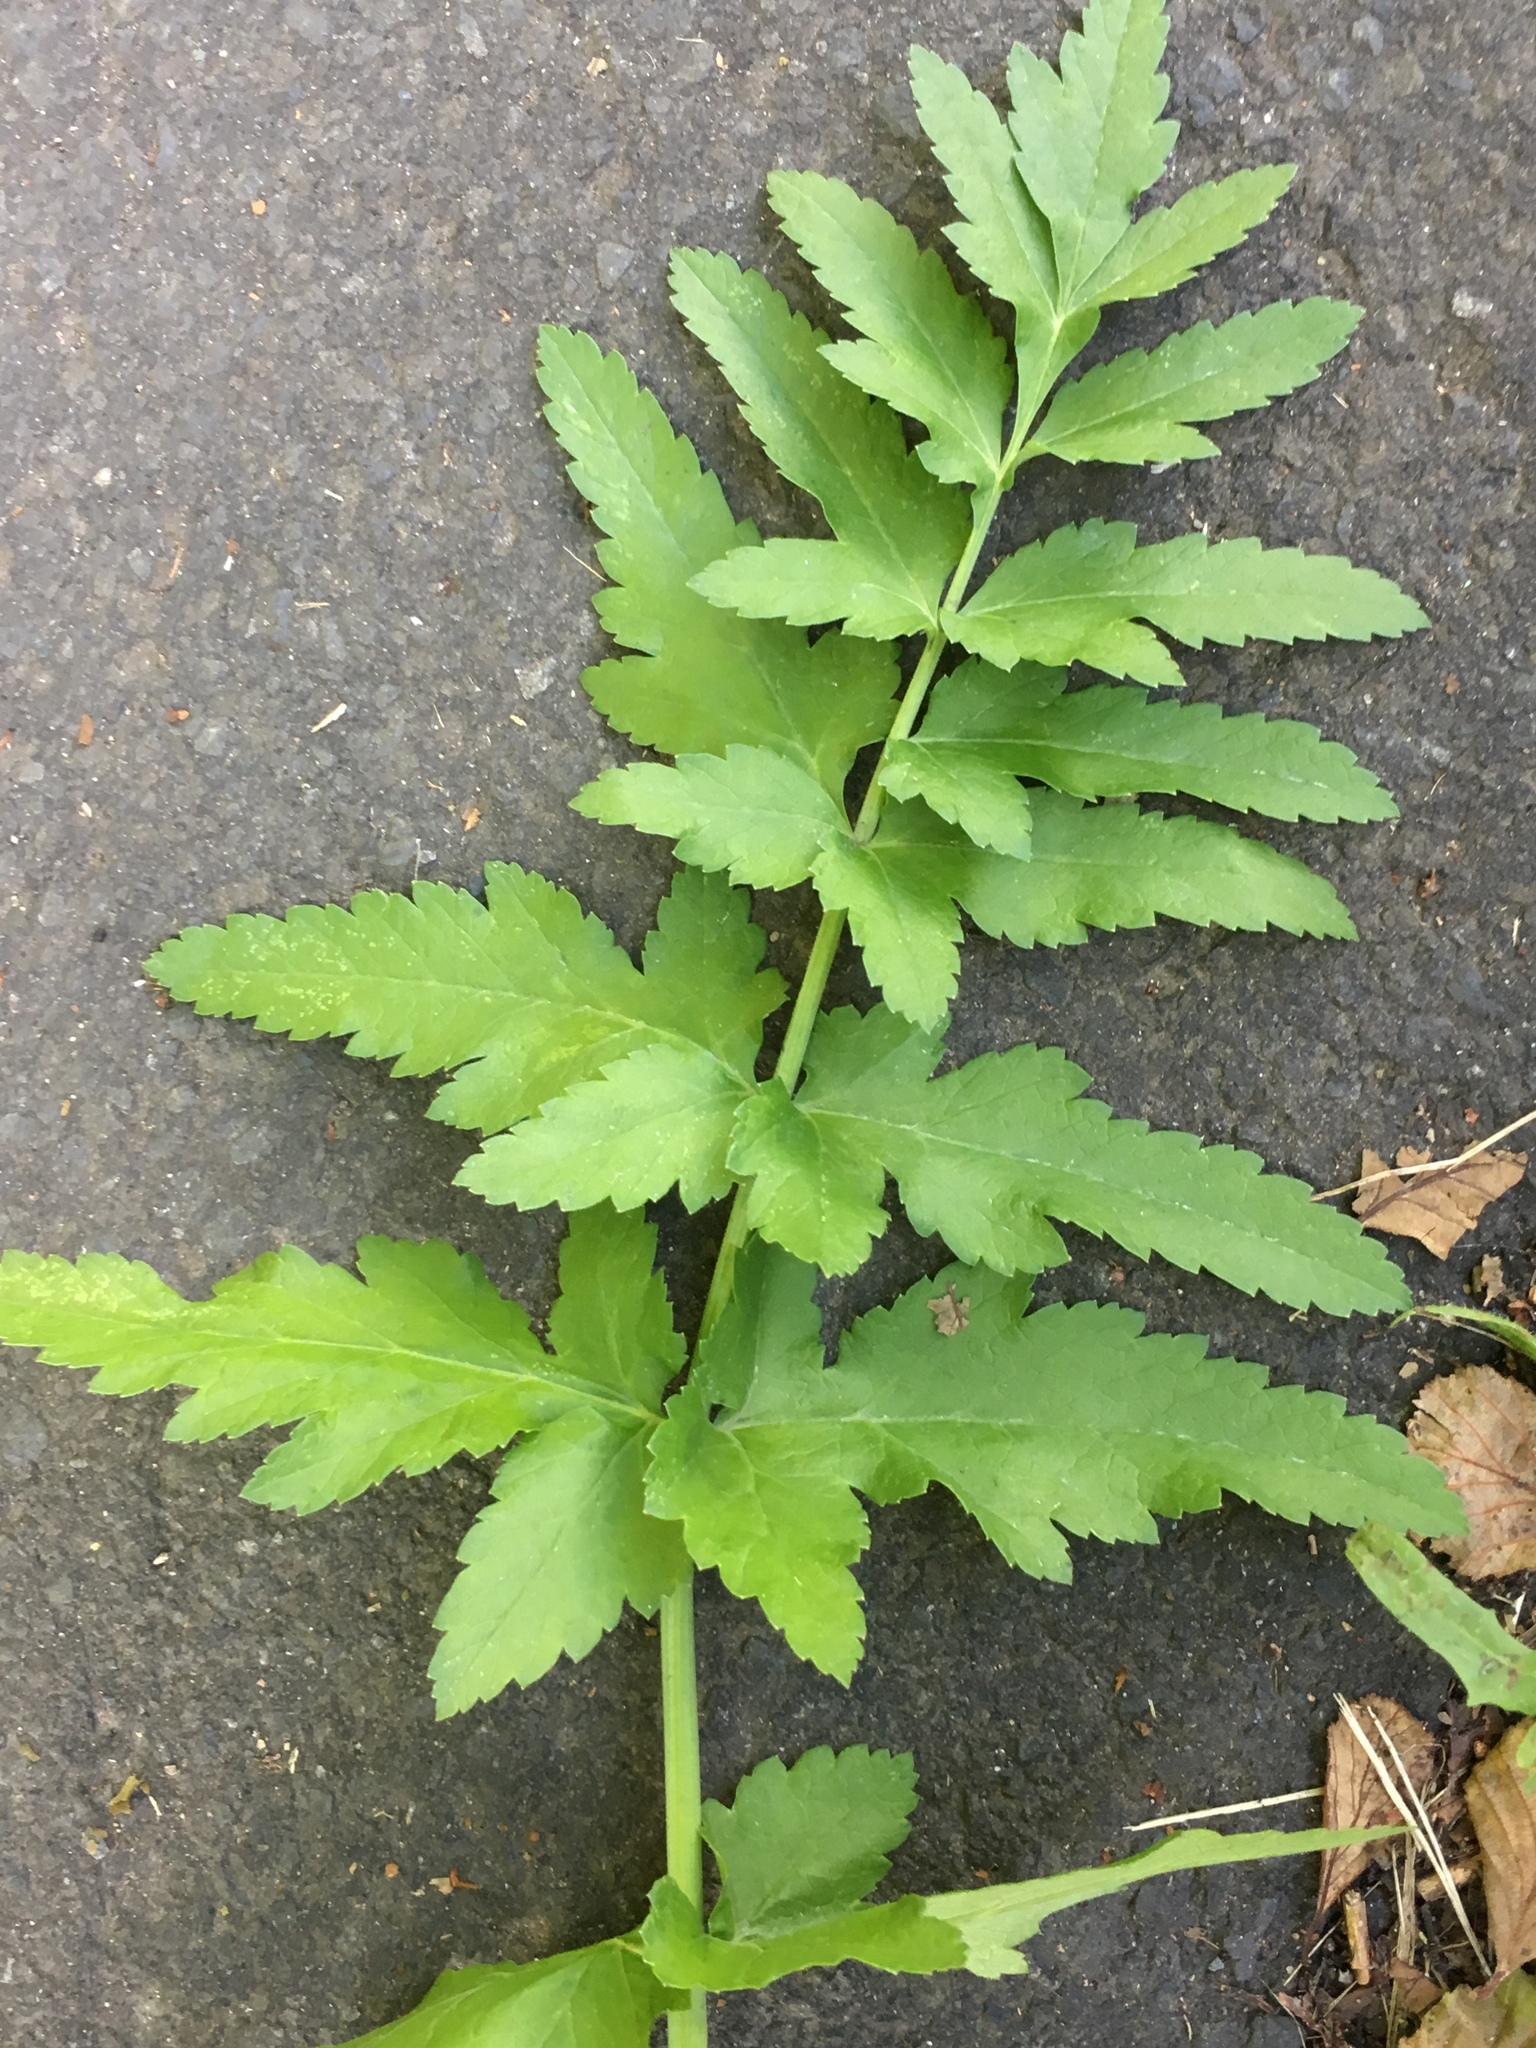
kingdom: Plantae
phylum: Tracheophyta
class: Magnoliopsida
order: Apiales
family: Apiaceae
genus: Pastinaca
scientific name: Pastinaca sativa
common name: Wild parsnip
